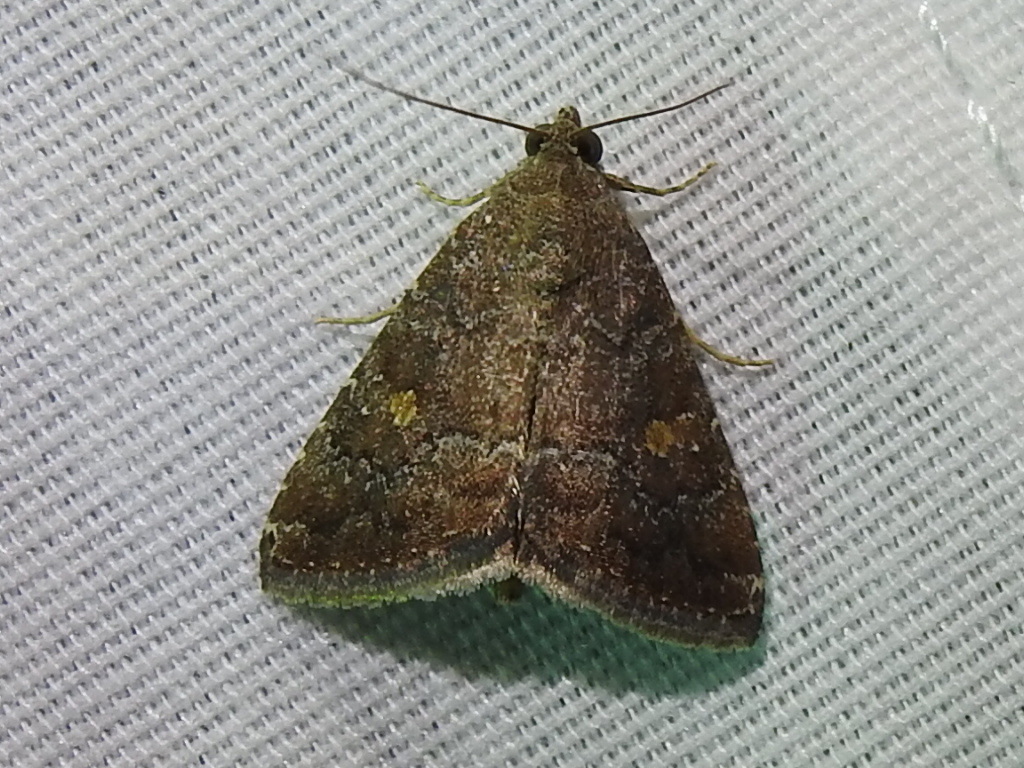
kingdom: Animalia
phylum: Arthropoda
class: Insecta
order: Lepidoptera
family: Noctuidae
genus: Amyna
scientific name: Amyna stricta
